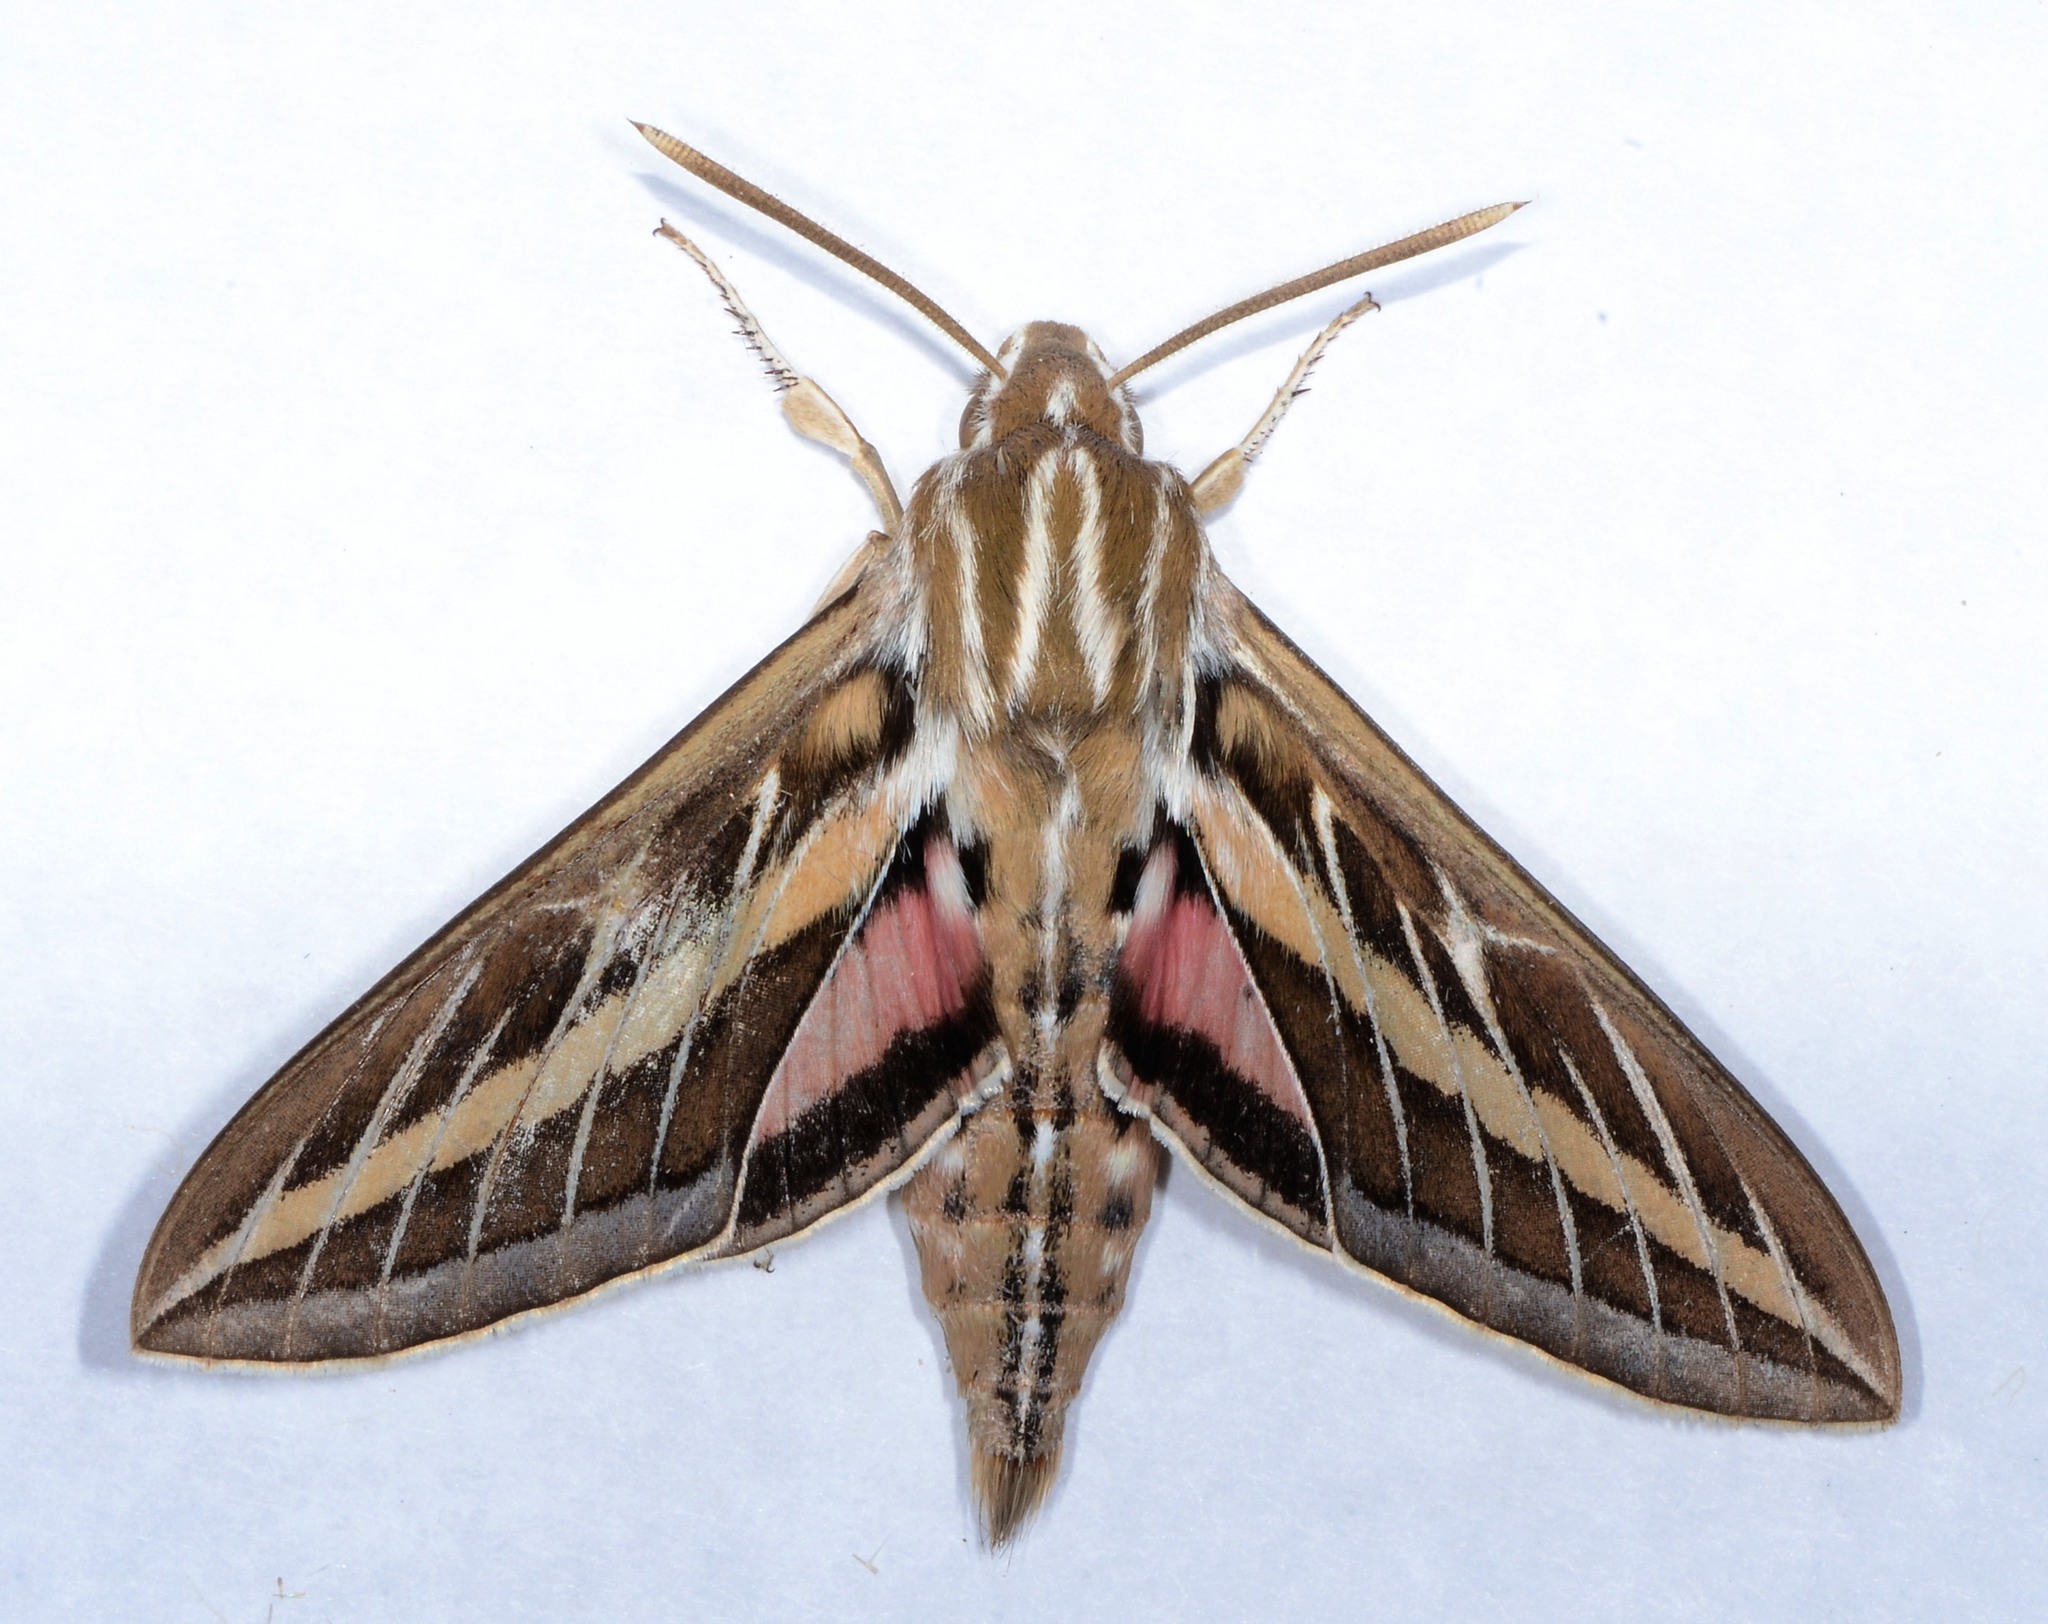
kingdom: Animalia
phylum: Arthropoda
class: Insecta
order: Lepidoptera
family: Sphingidae
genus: Hyles
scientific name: Hyles lineata
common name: White-lined sphinx
